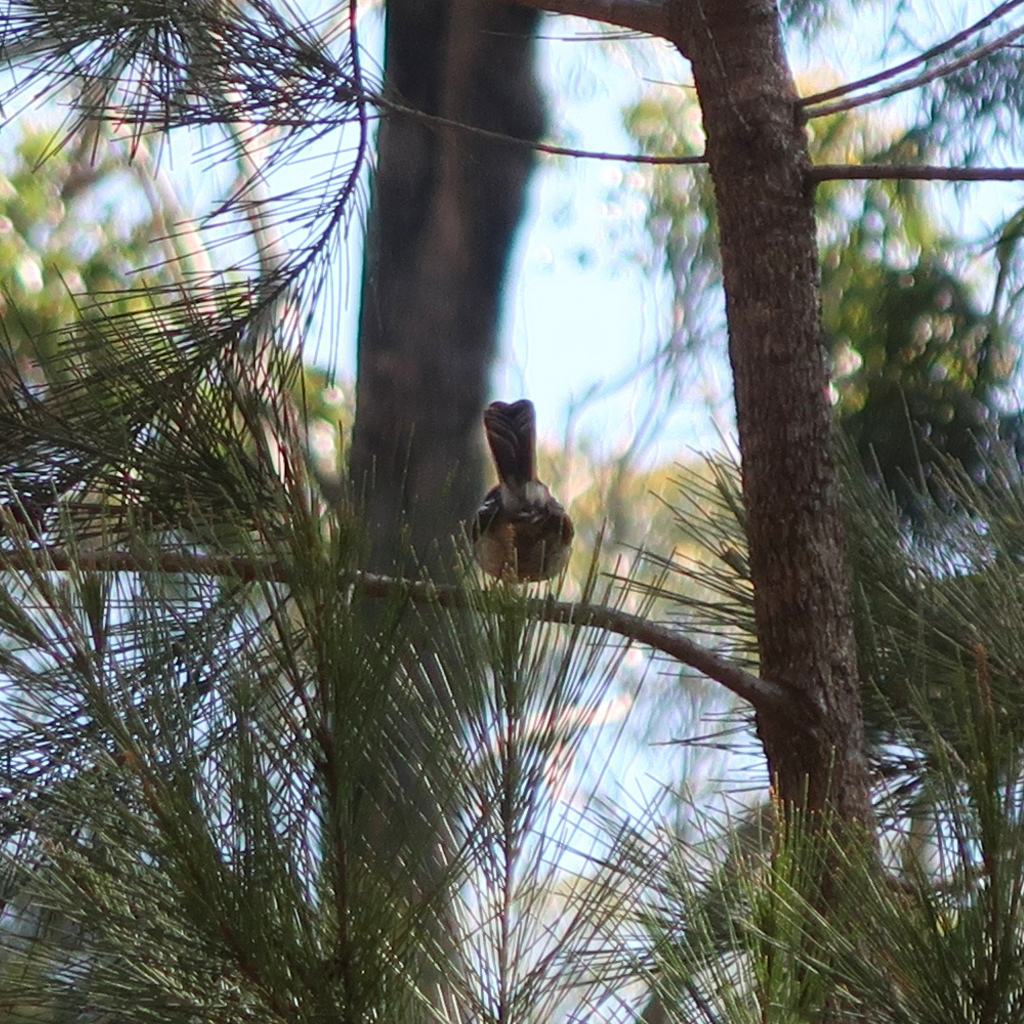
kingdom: Animalia
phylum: Chordata
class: Aves
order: Passeriformes
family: Rhipiduridae
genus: Rhipidura
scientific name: Rhipidura albiscapa
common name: Grey fantail
